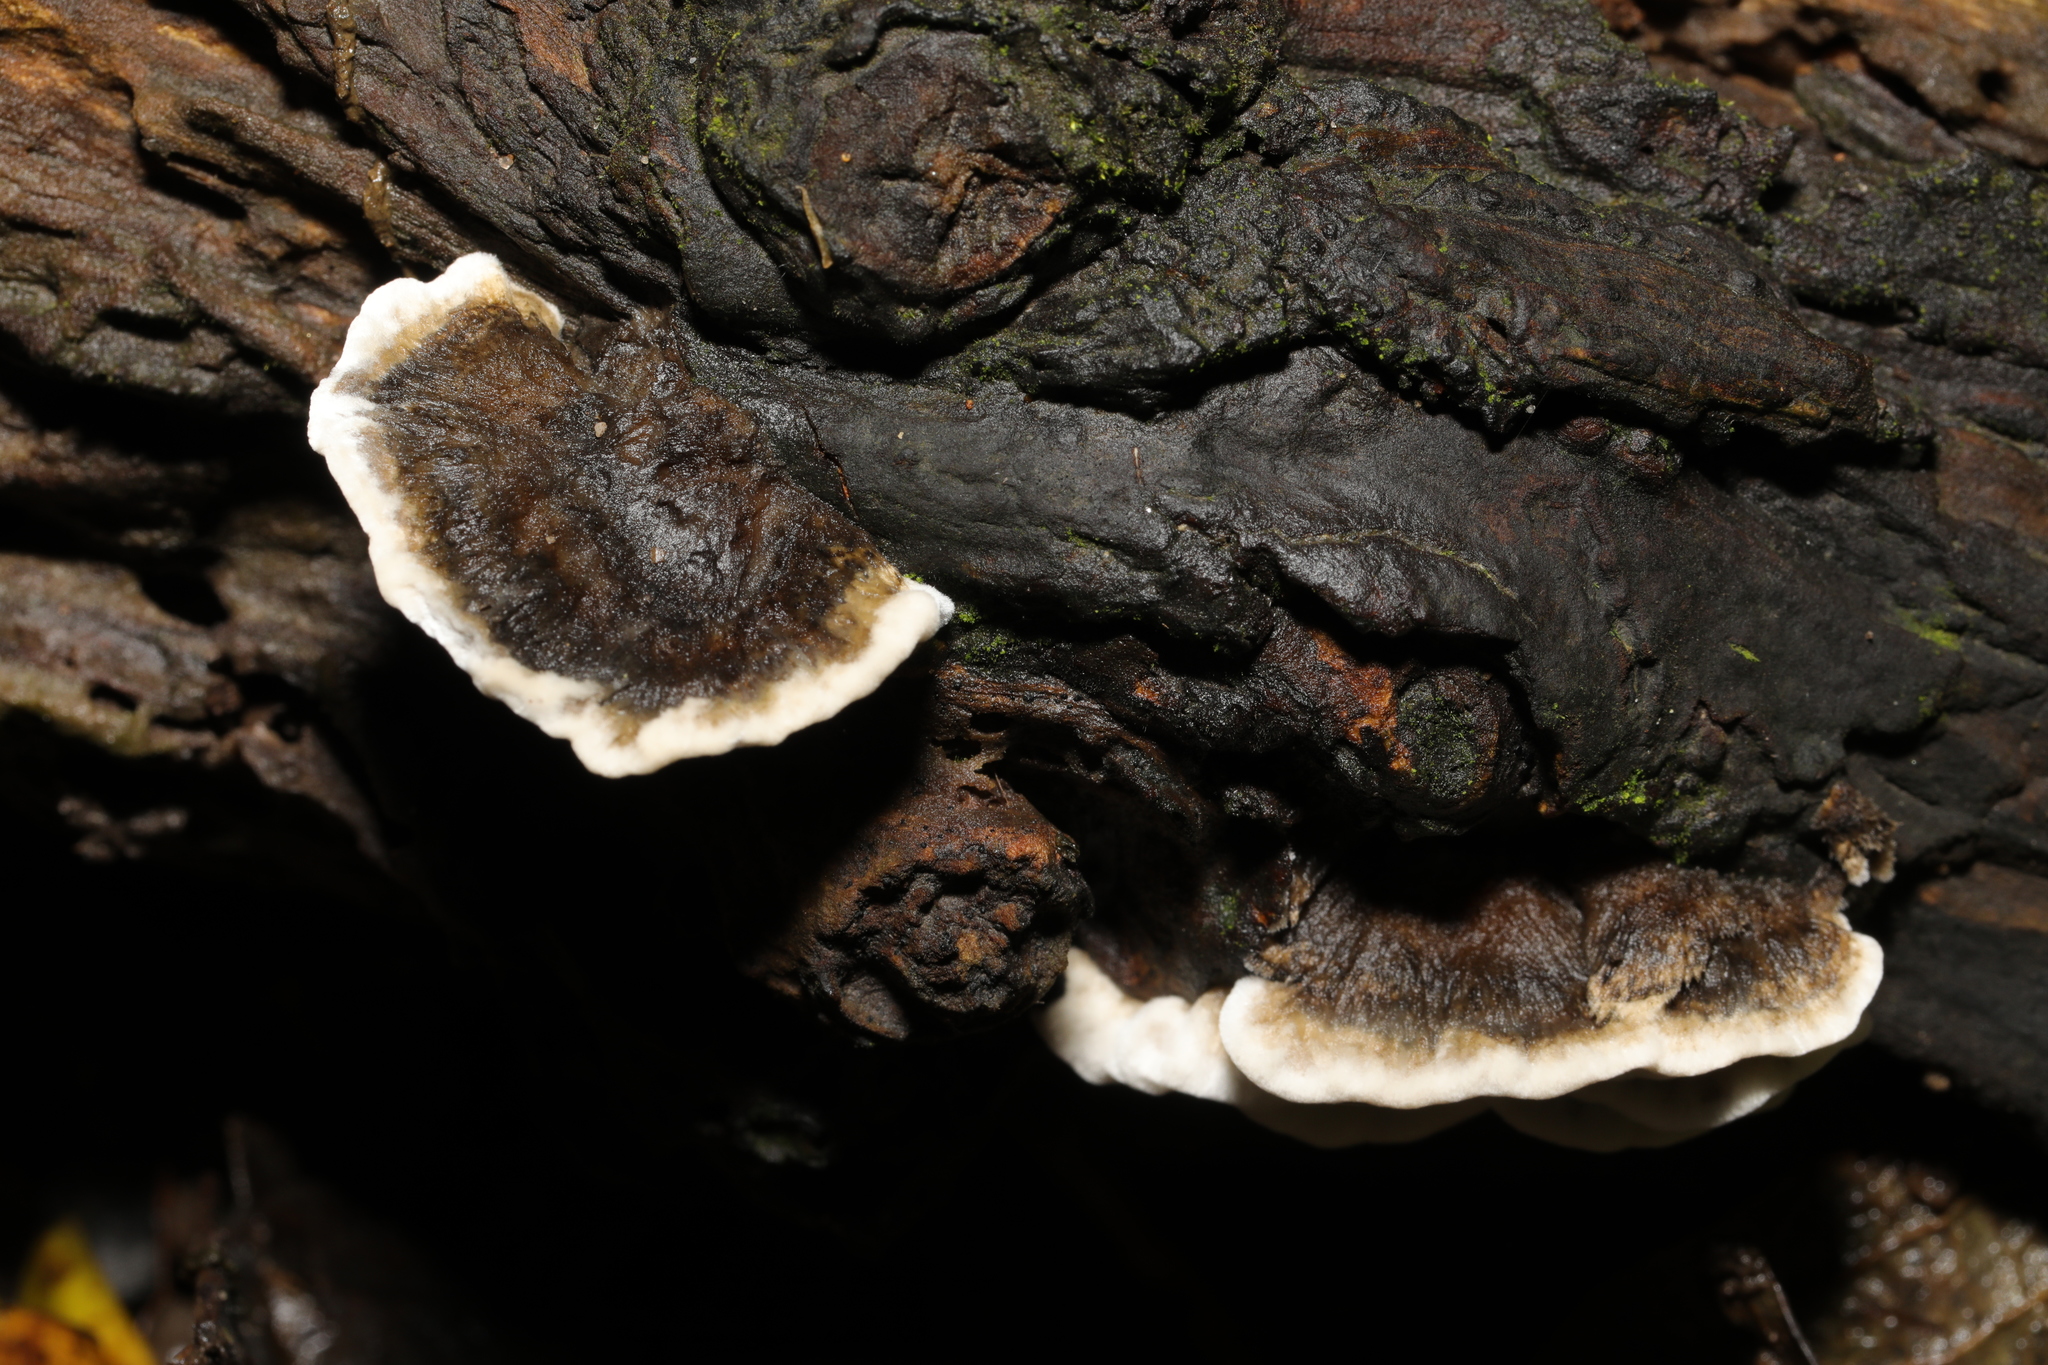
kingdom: Fungi
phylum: Basidiomycota
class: Agaricomycetes
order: Polyporales
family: Phanerochaetaceae
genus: Bjerkandera
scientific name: Bjerkandera adusta
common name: Smoky bracket
